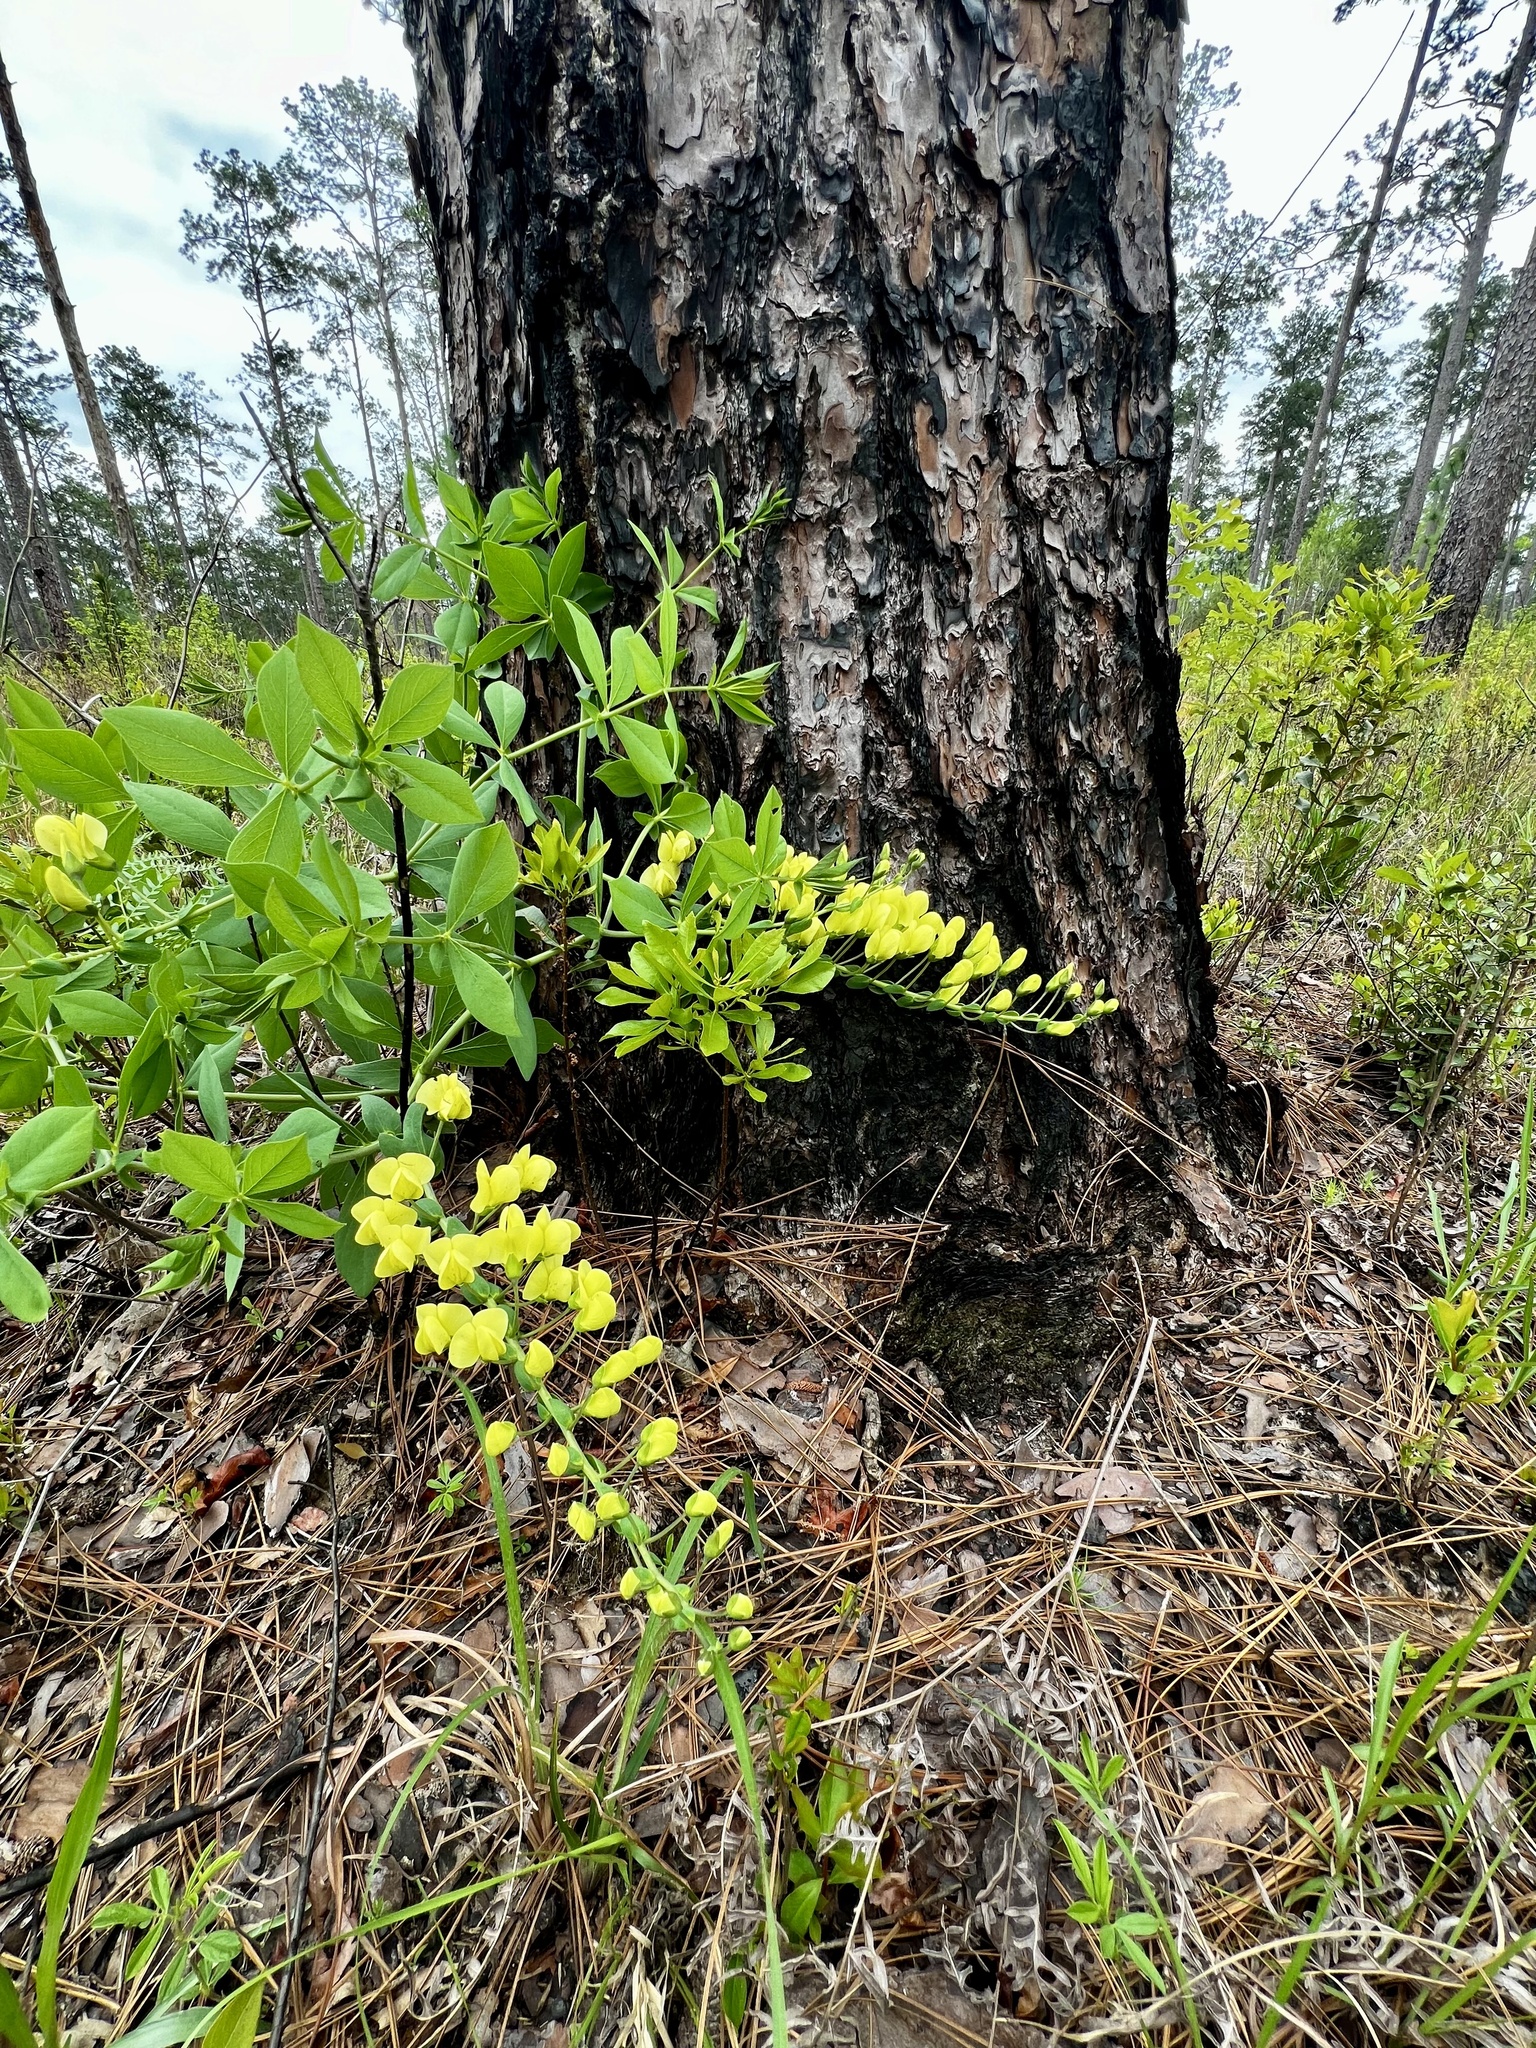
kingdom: Plantae
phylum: Tracheophyta
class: Magnoliopsida
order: Fabales
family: Fabaceae
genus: Baptisia
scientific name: Baptisia bracteata
